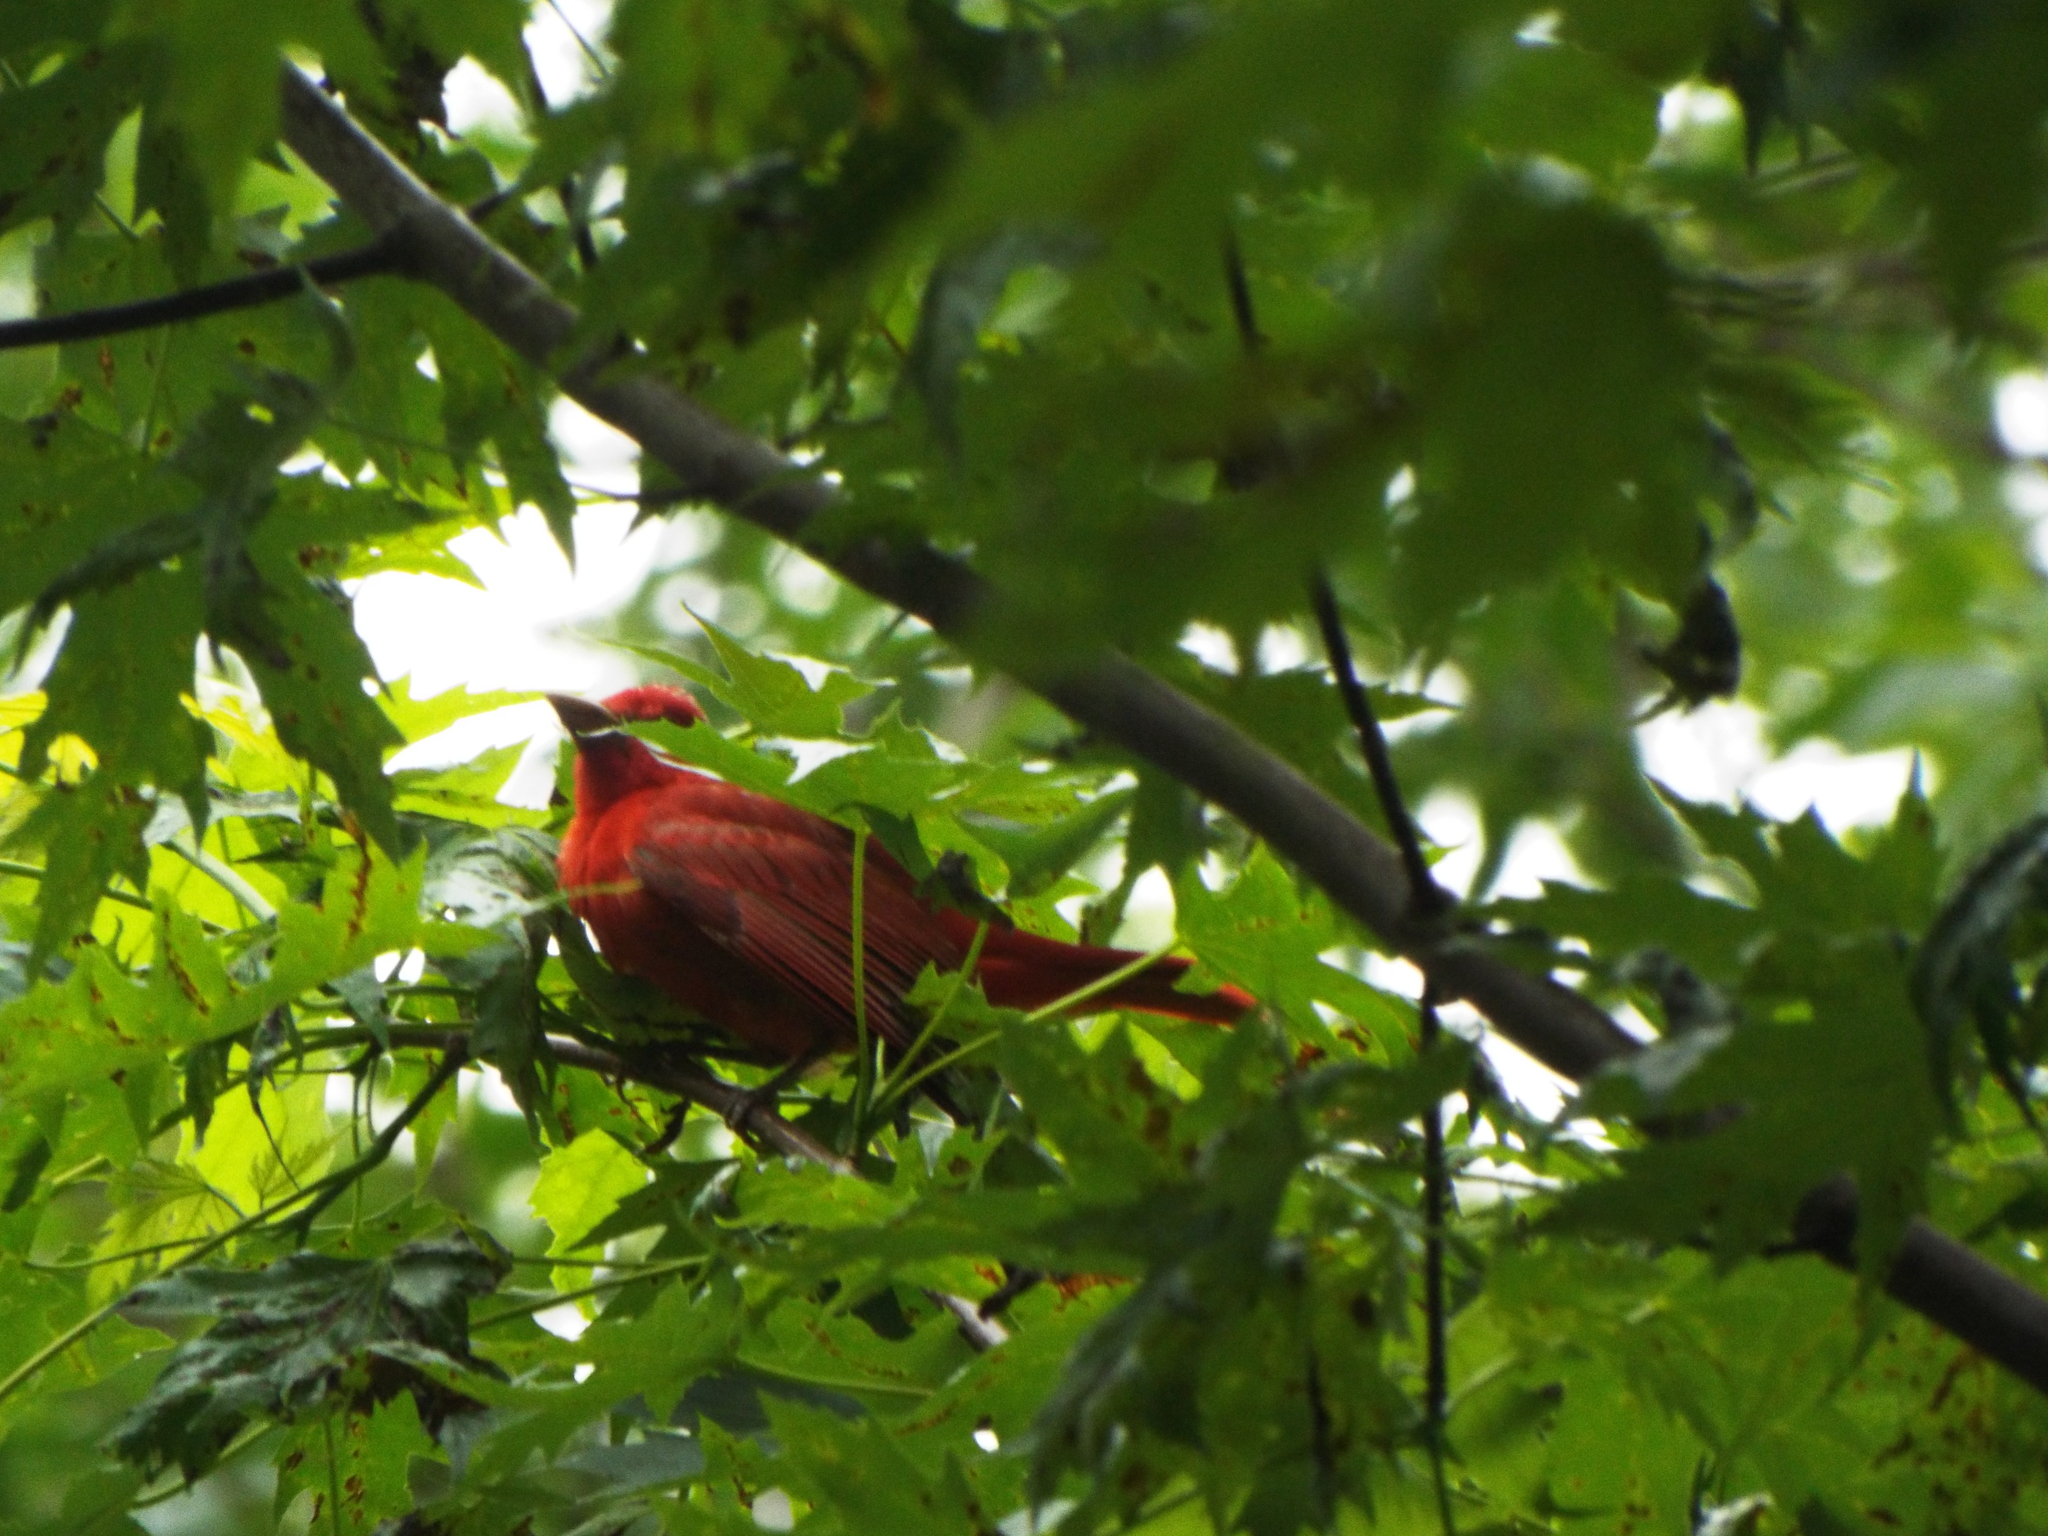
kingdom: Animalia
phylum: Chordata
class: Aves
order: Passeriformes
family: Cardinalidae
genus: Piranga
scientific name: Piranga rubra
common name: Summer tanager
